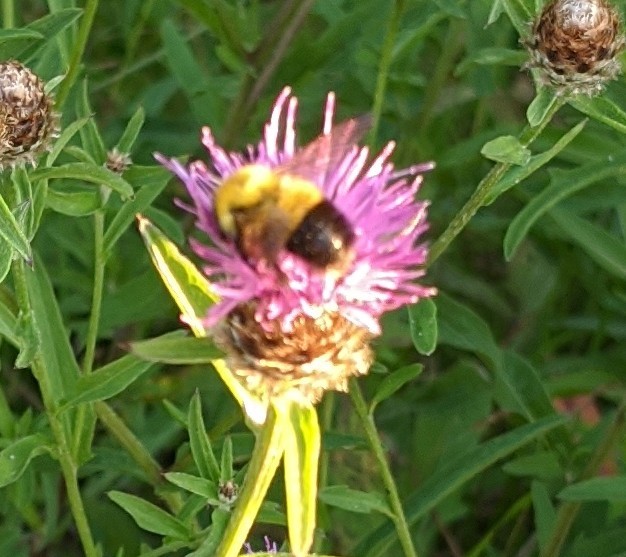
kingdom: Animalia
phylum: Arthropoda
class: Insecta
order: Hymenoptera
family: Apidae
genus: Bombus
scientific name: Bombus perplexus
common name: Confusing bumble bee
